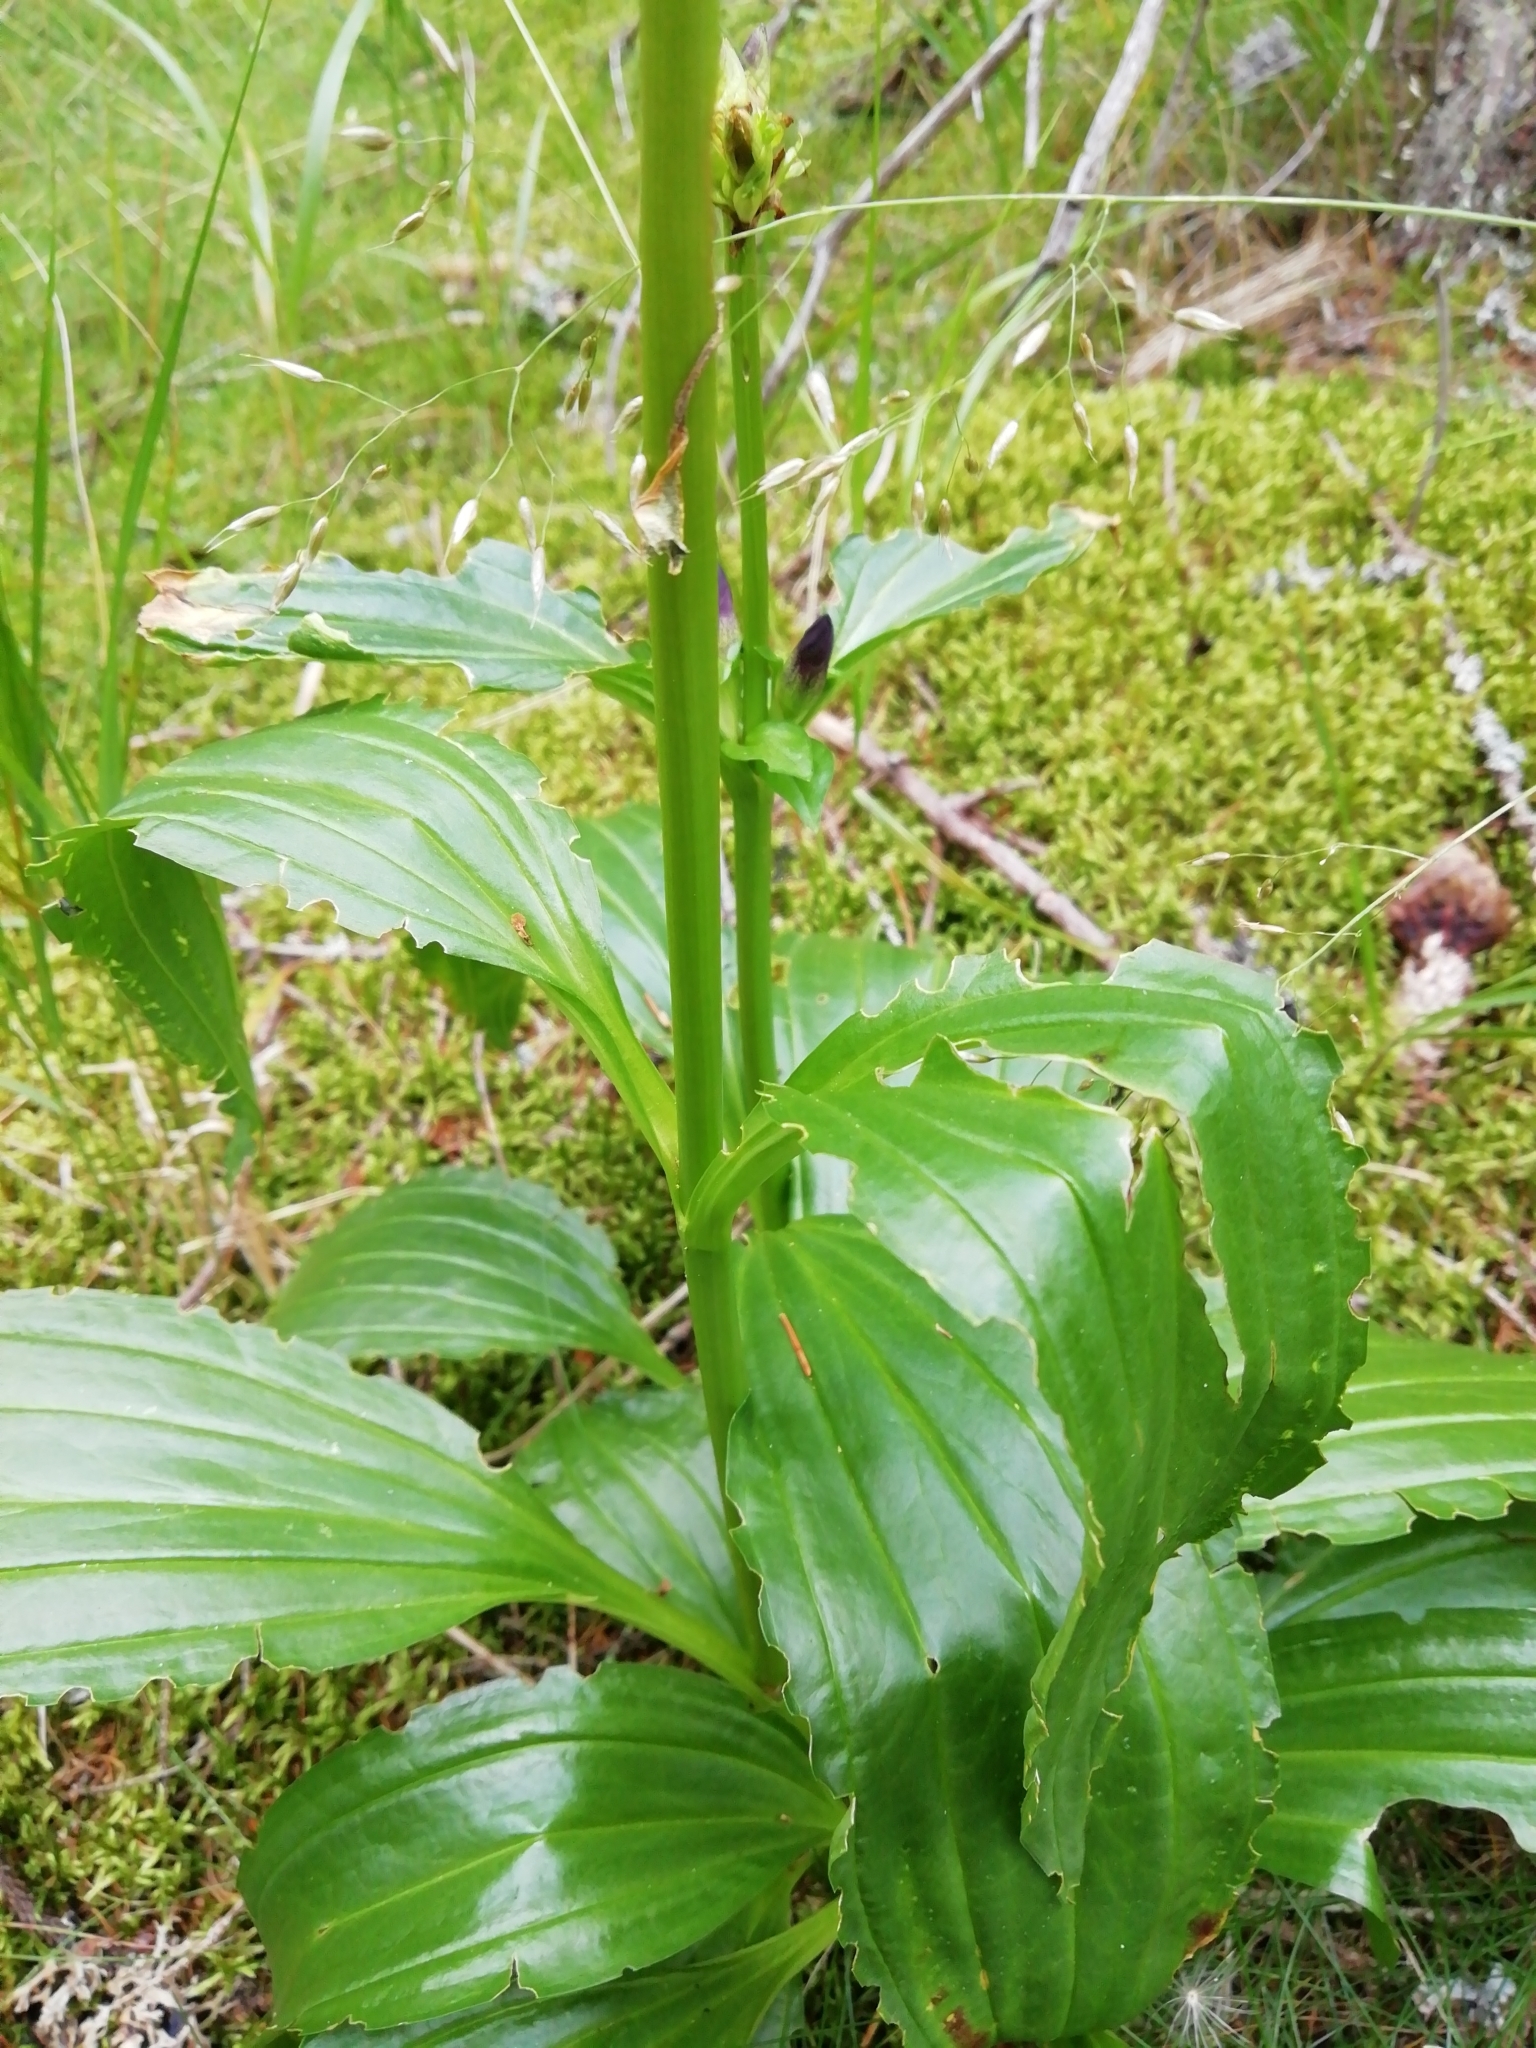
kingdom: Plantae
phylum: Tracheophyta
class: Magnoliopsida
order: Gentianales
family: Gentianaceae
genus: Gentiana
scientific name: Gentiana pannonica
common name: Hungarian gentian
